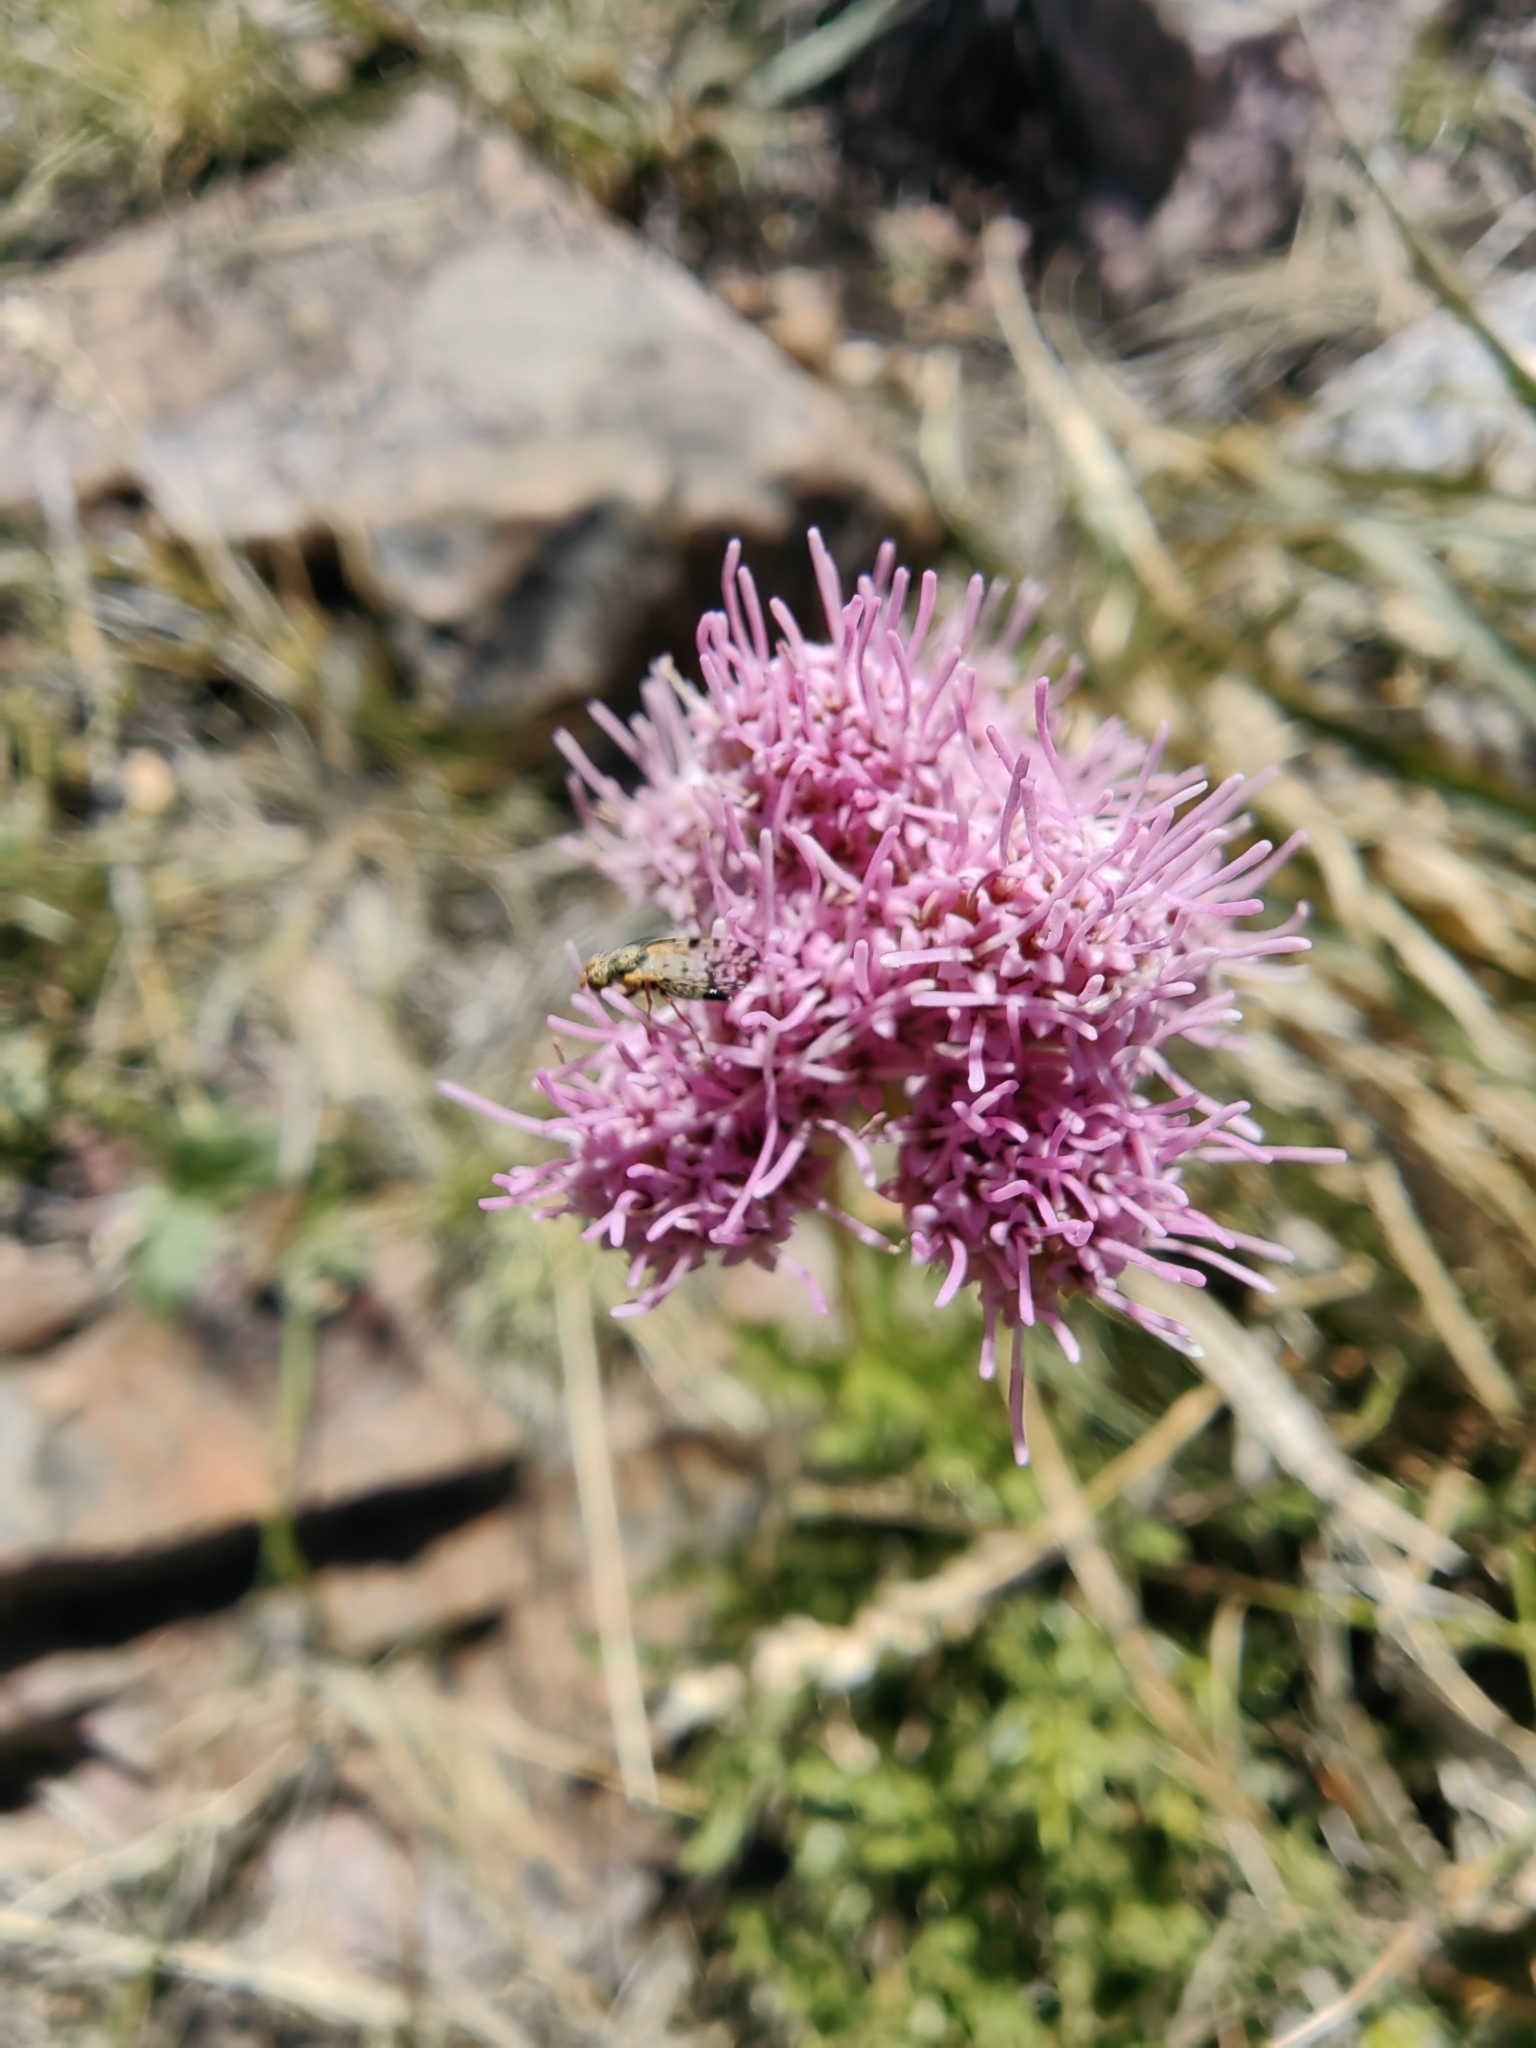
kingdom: Plantae
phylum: Tracheophyta
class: Magnoliopsida
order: Asterales
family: Asteraceae
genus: Gyptis
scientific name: Gyptis tanacetifolia
